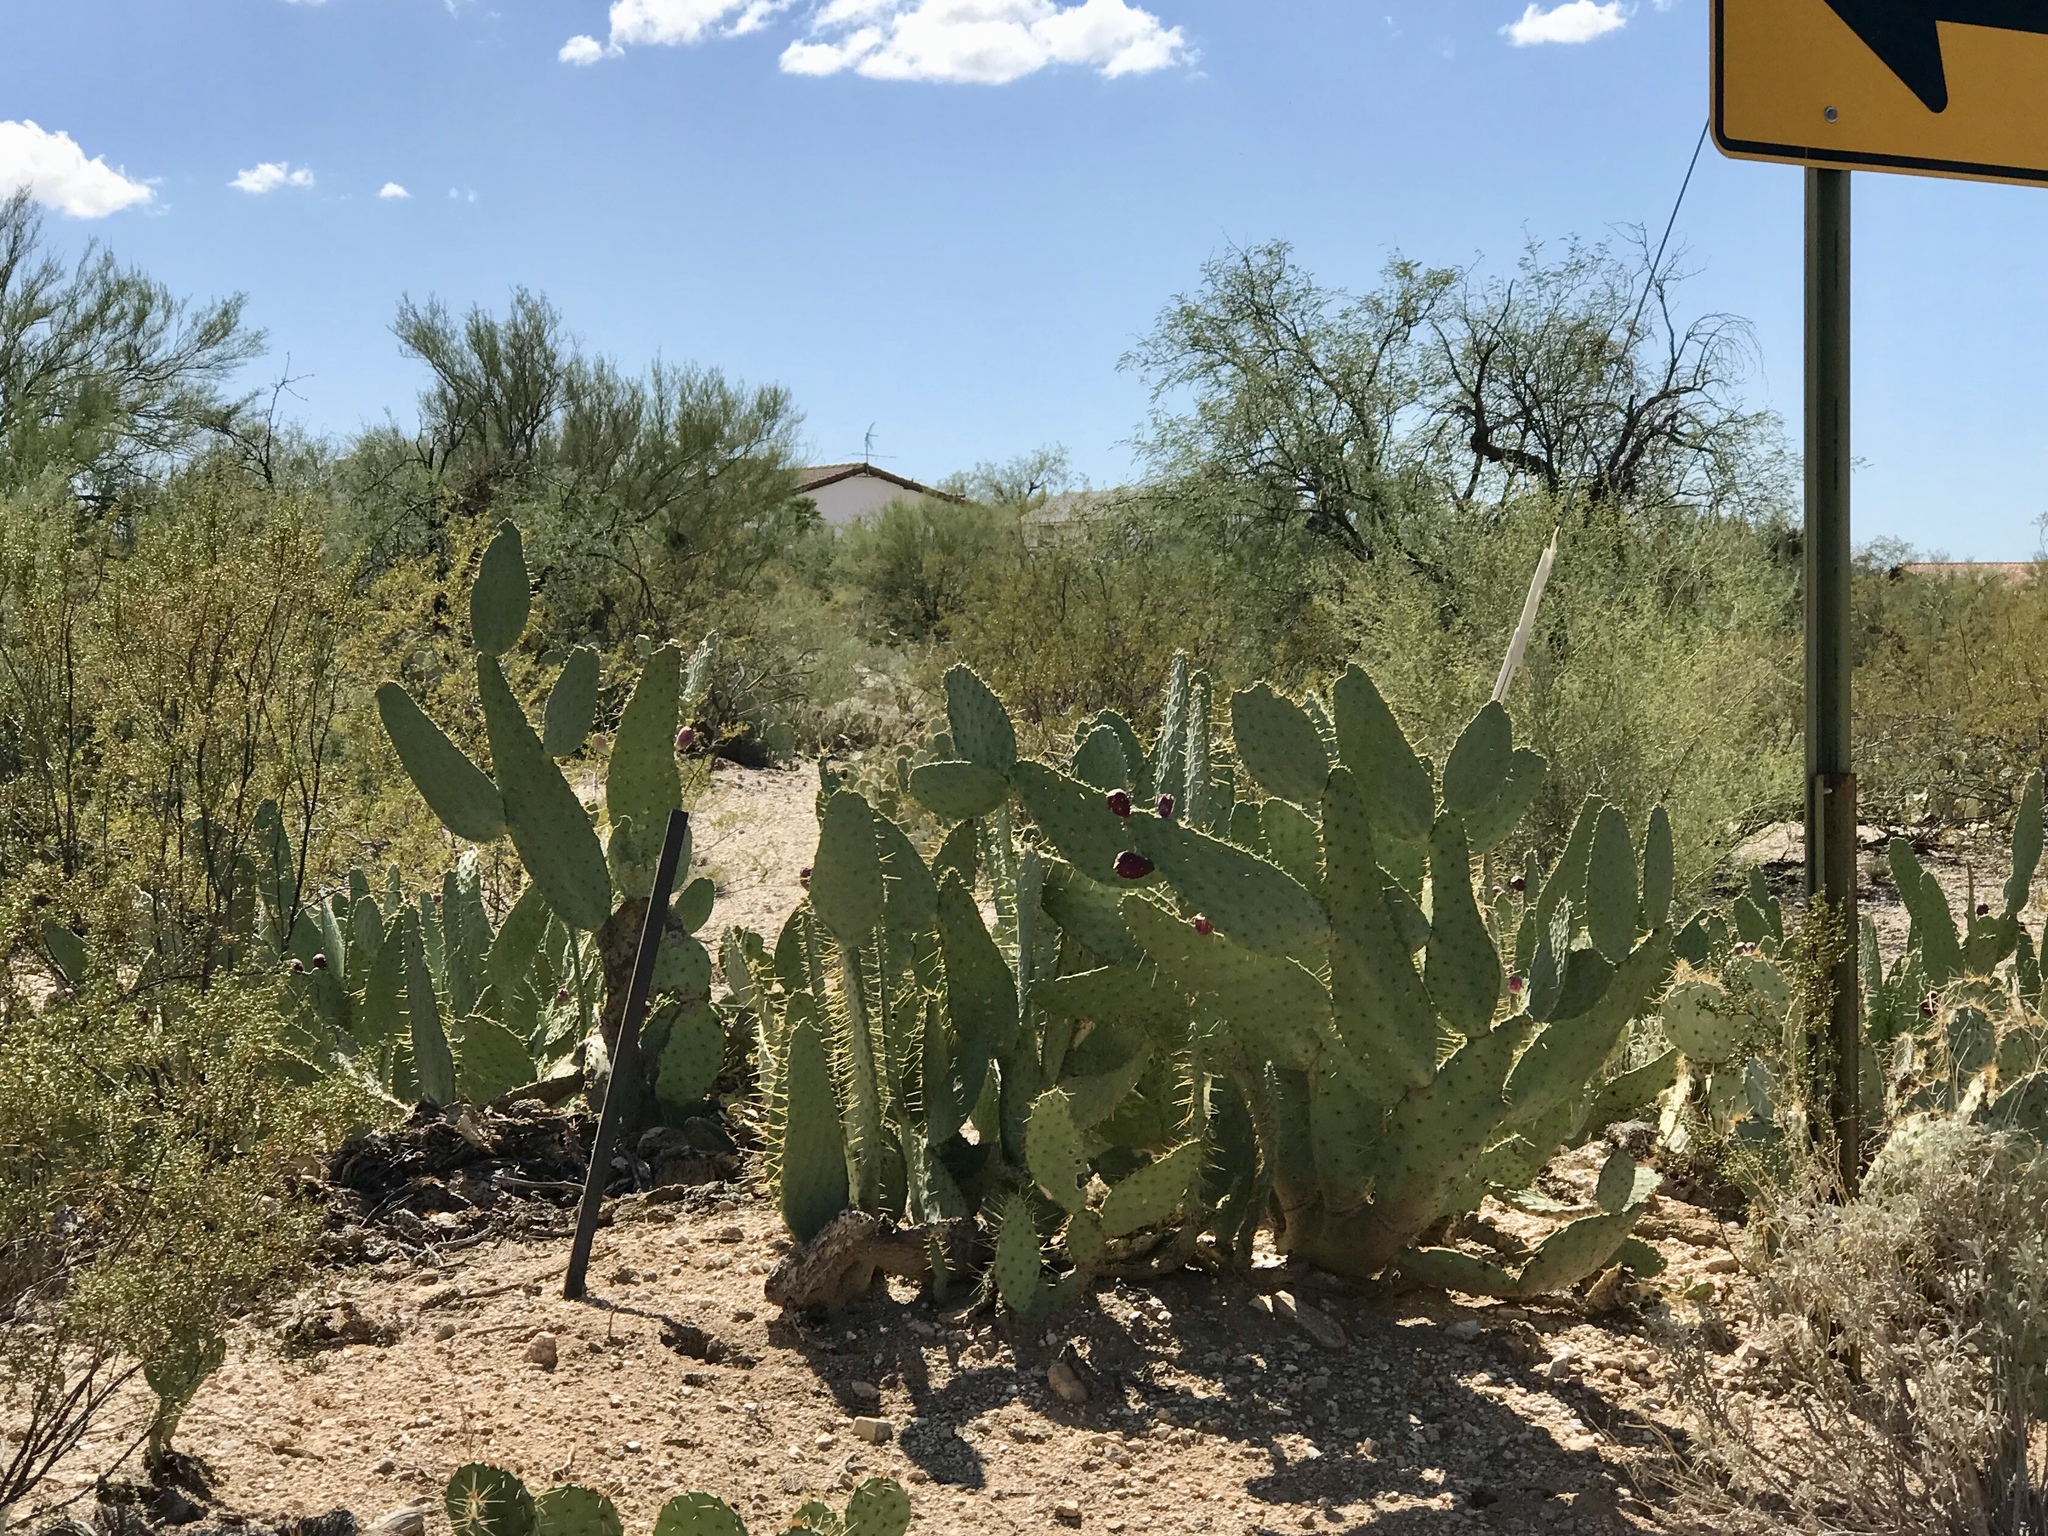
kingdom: Plantae
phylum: Tracheophyta
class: Magnoliopsida
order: Caryophyllales
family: Cactaceae
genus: Opuntia
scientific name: Opuntia engelmannii
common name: Cactus-apple
